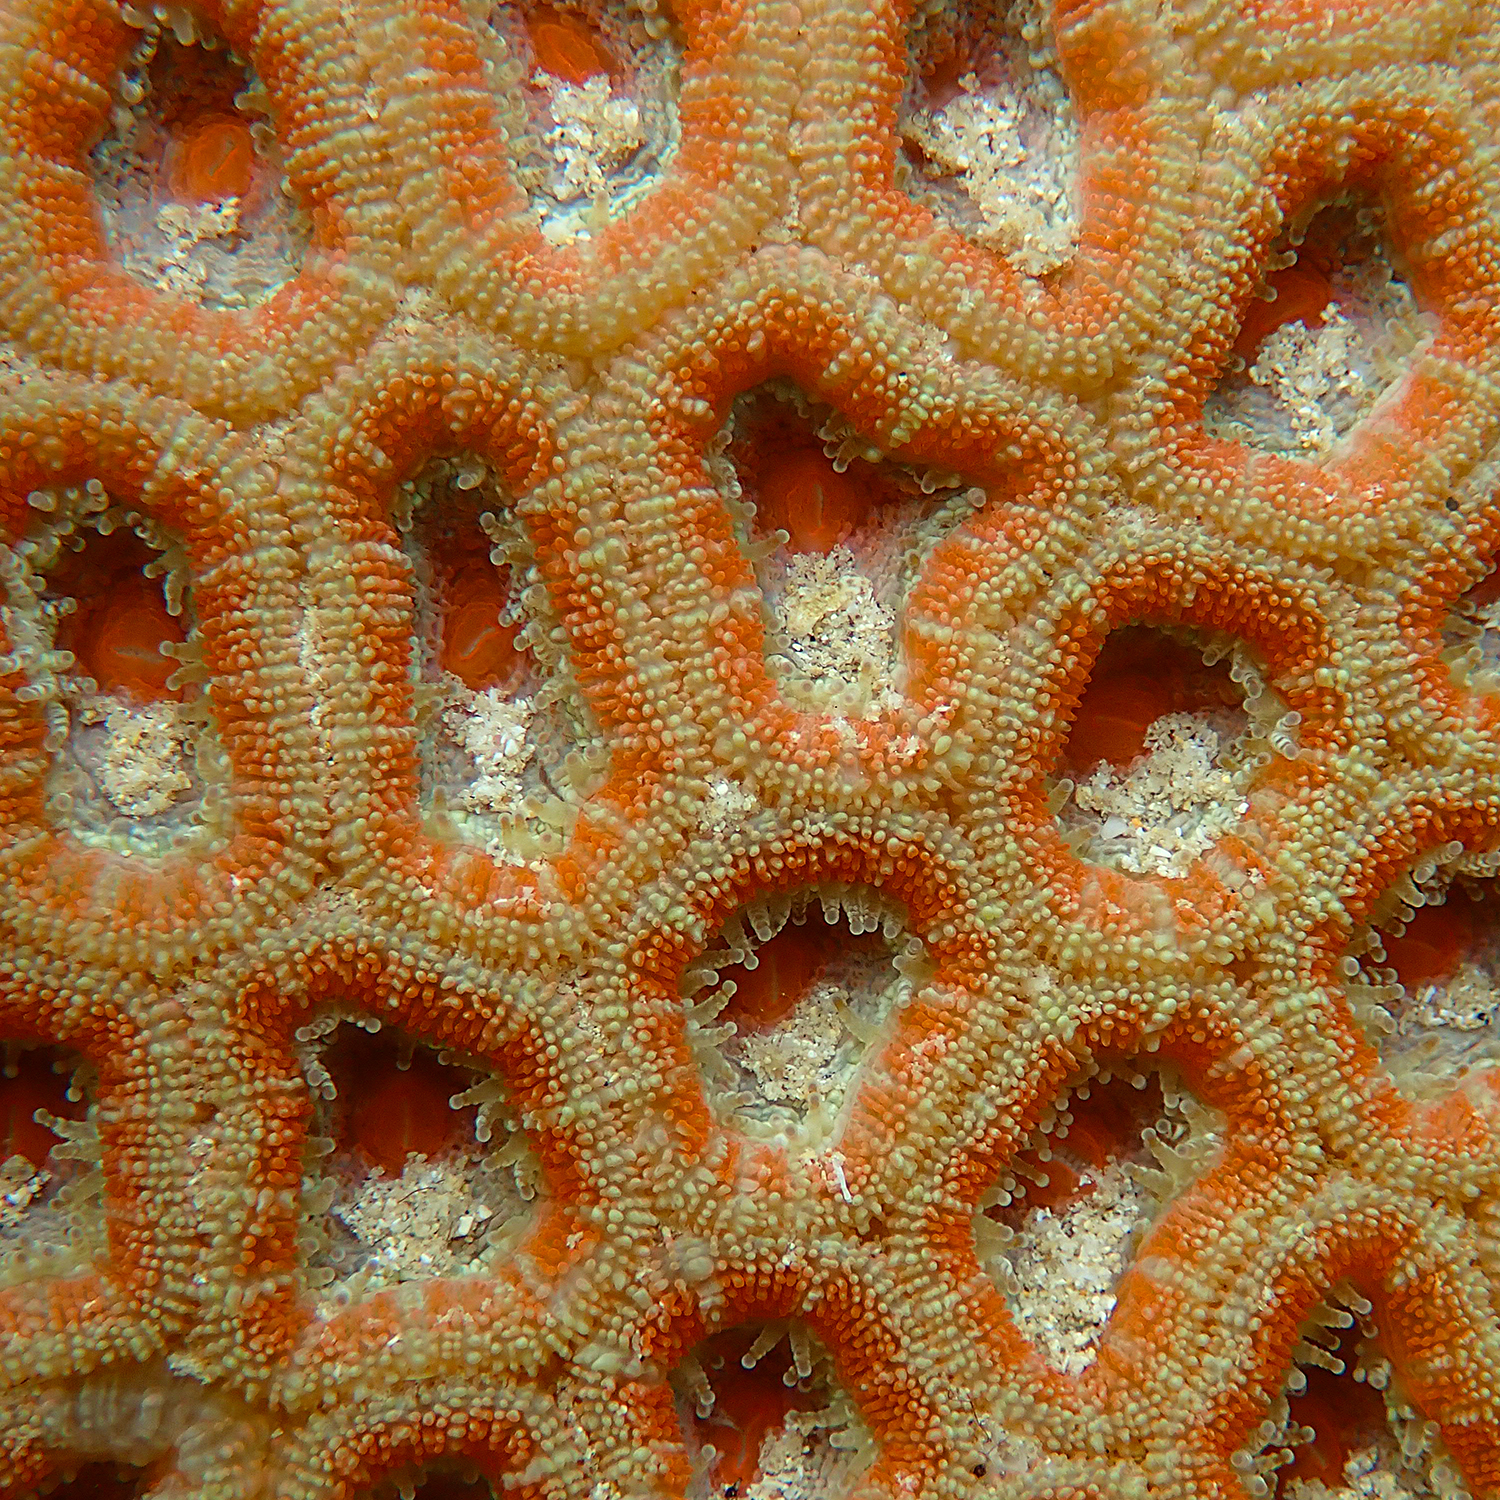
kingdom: Animalia
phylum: Cnidaria
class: Anthozoa
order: Scleractinia
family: Lobophylliidae
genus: Micromussa
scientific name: Micromussa lordhowensis
